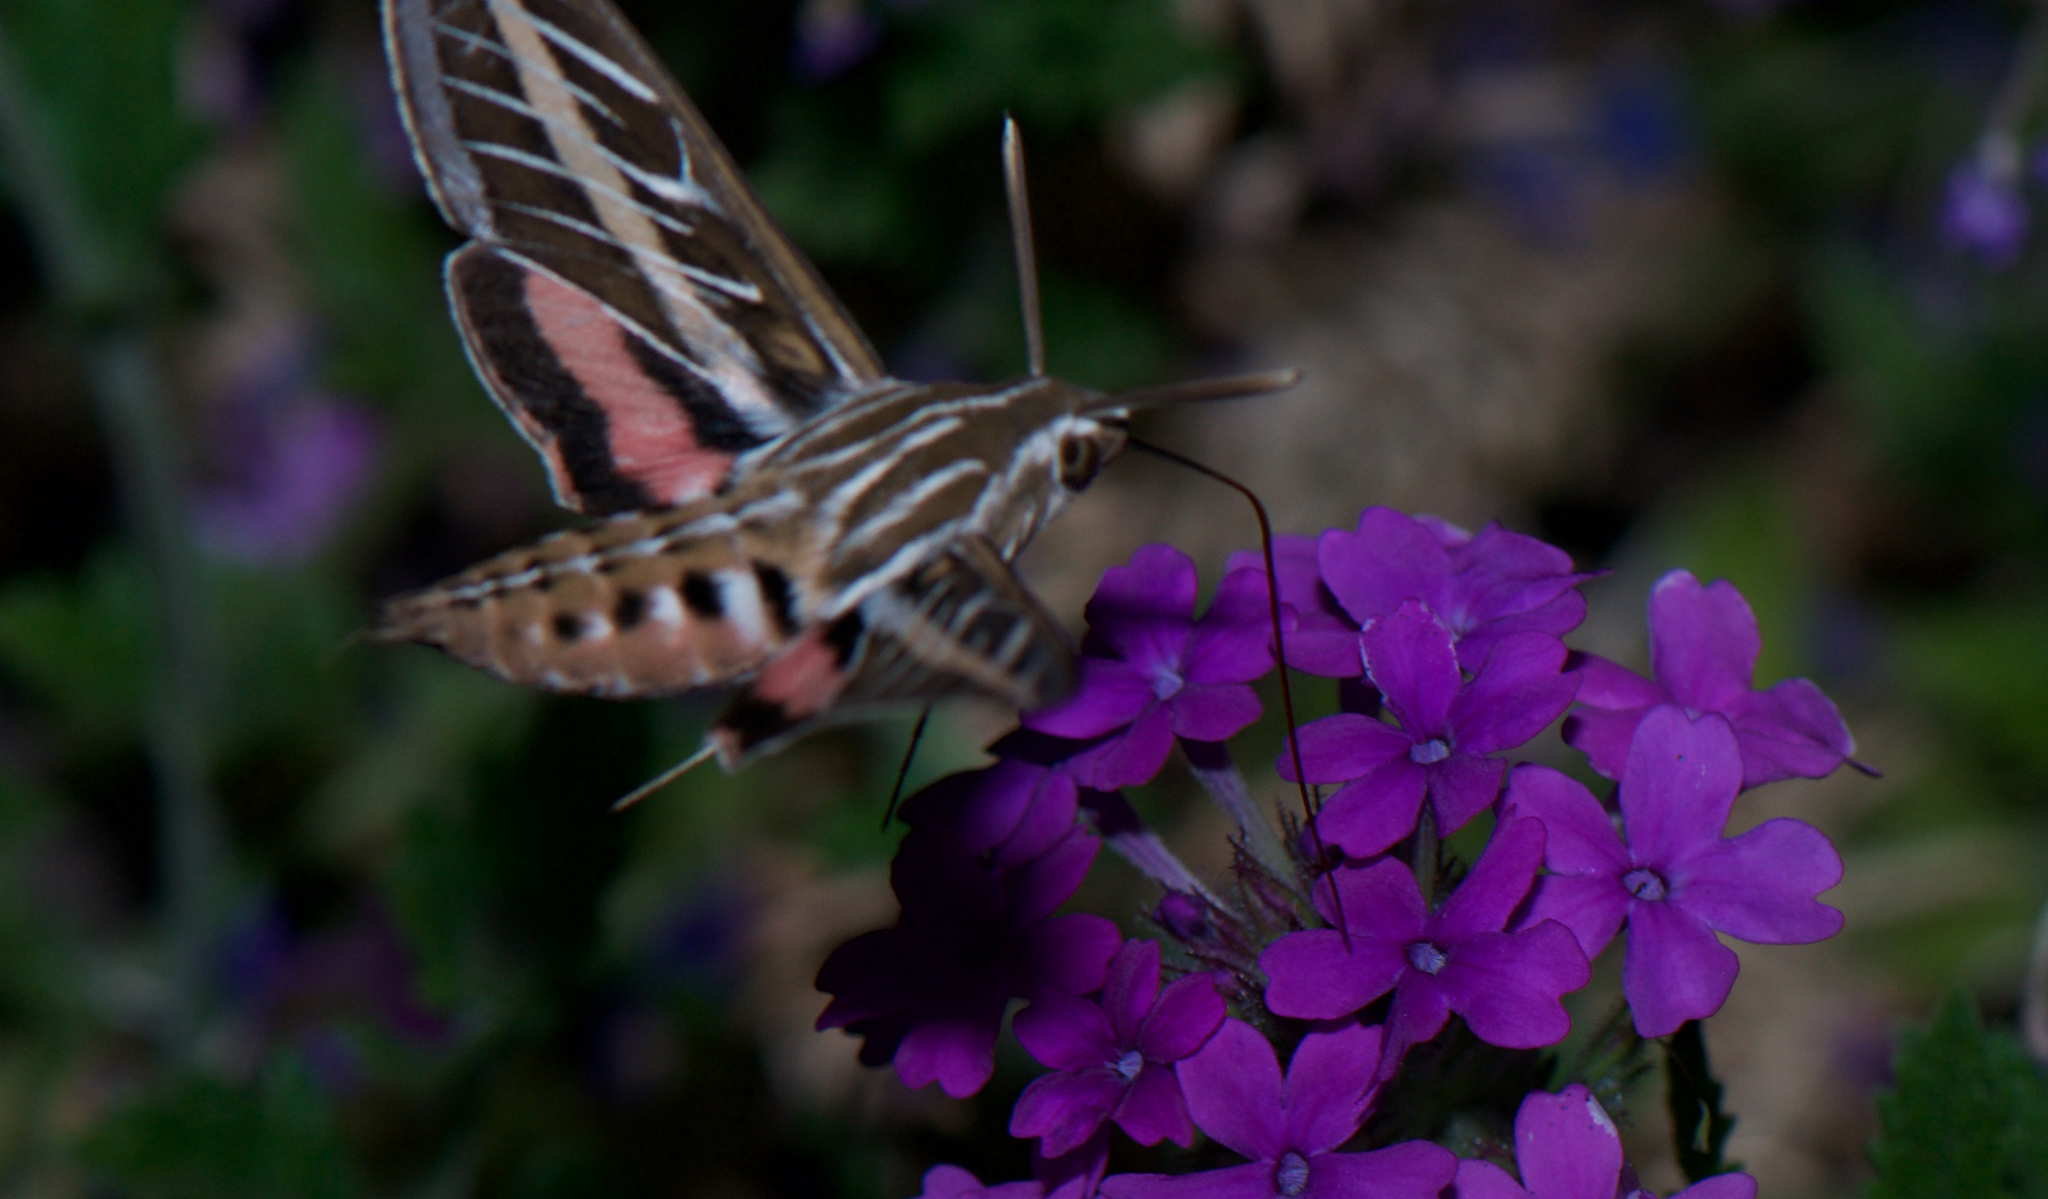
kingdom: Animalia
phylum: Arthropoda
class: Insecta
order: Lepidoptera
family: Sphingidae
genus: Hyles
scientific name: Hyles lineata
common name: White-lined sphinx
